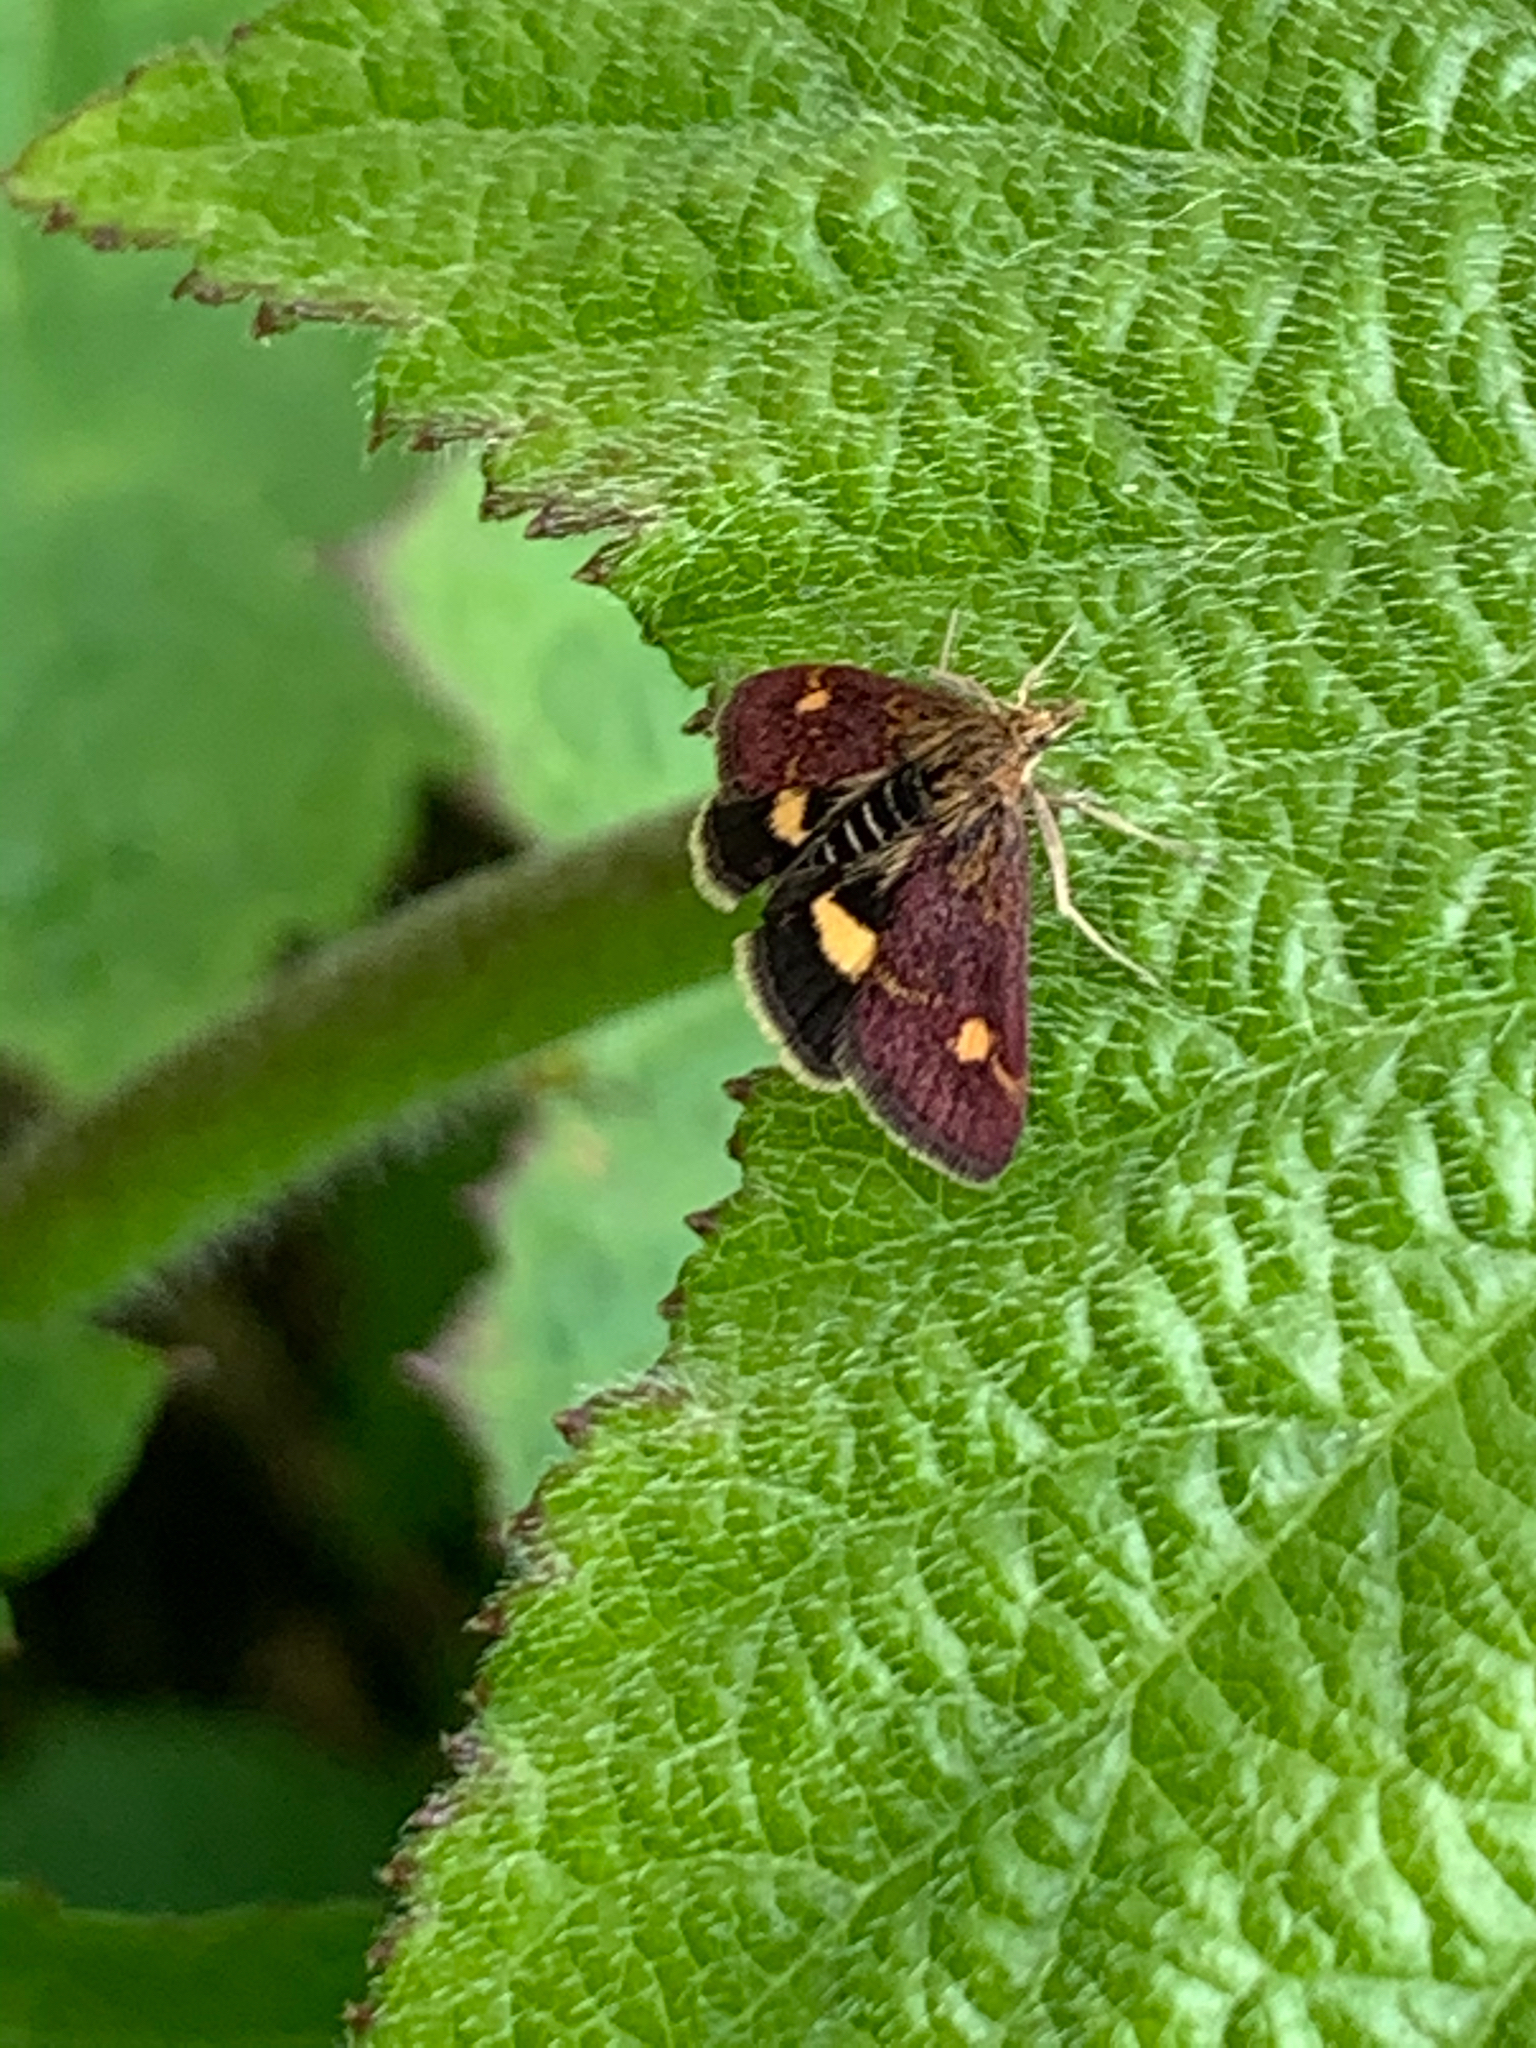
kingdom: Animalia
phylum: Arthropoda
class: Insecta
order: Lepidoptera
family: Crambidae
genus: Pyrausta
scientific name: Pyrausta aurata
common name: Small purple & gold
